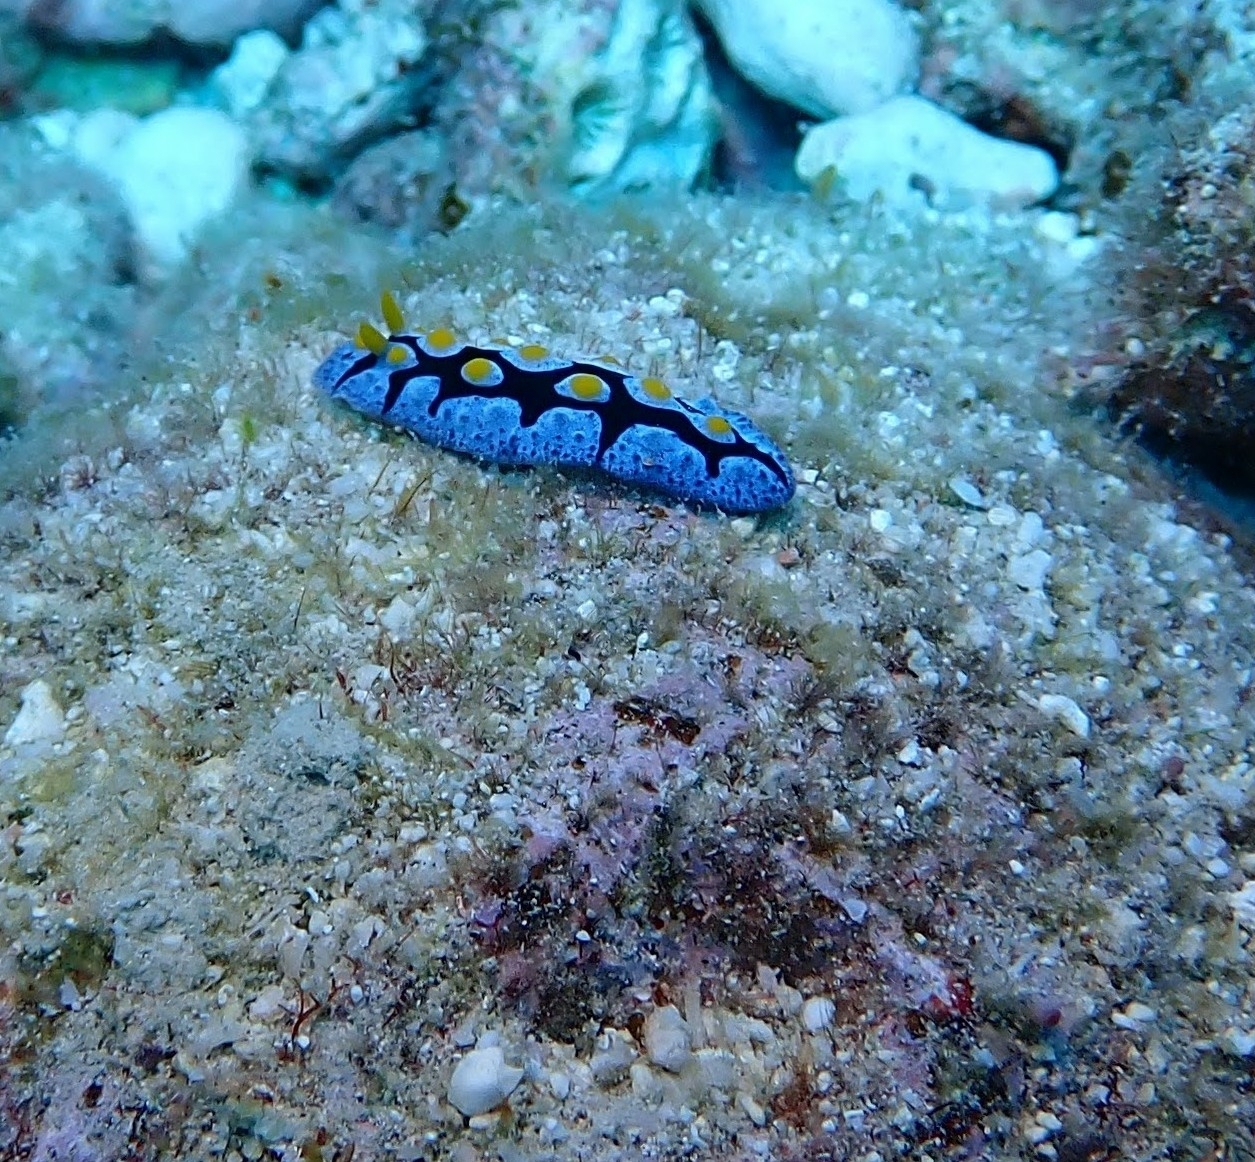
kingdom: Animalia
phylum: Mollusca
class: Gastropoda
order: Nudibranchia
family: Phyllidiidae
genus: Phyllidia
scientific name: Phyllidia picta
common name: Black-rayed phyllidia
